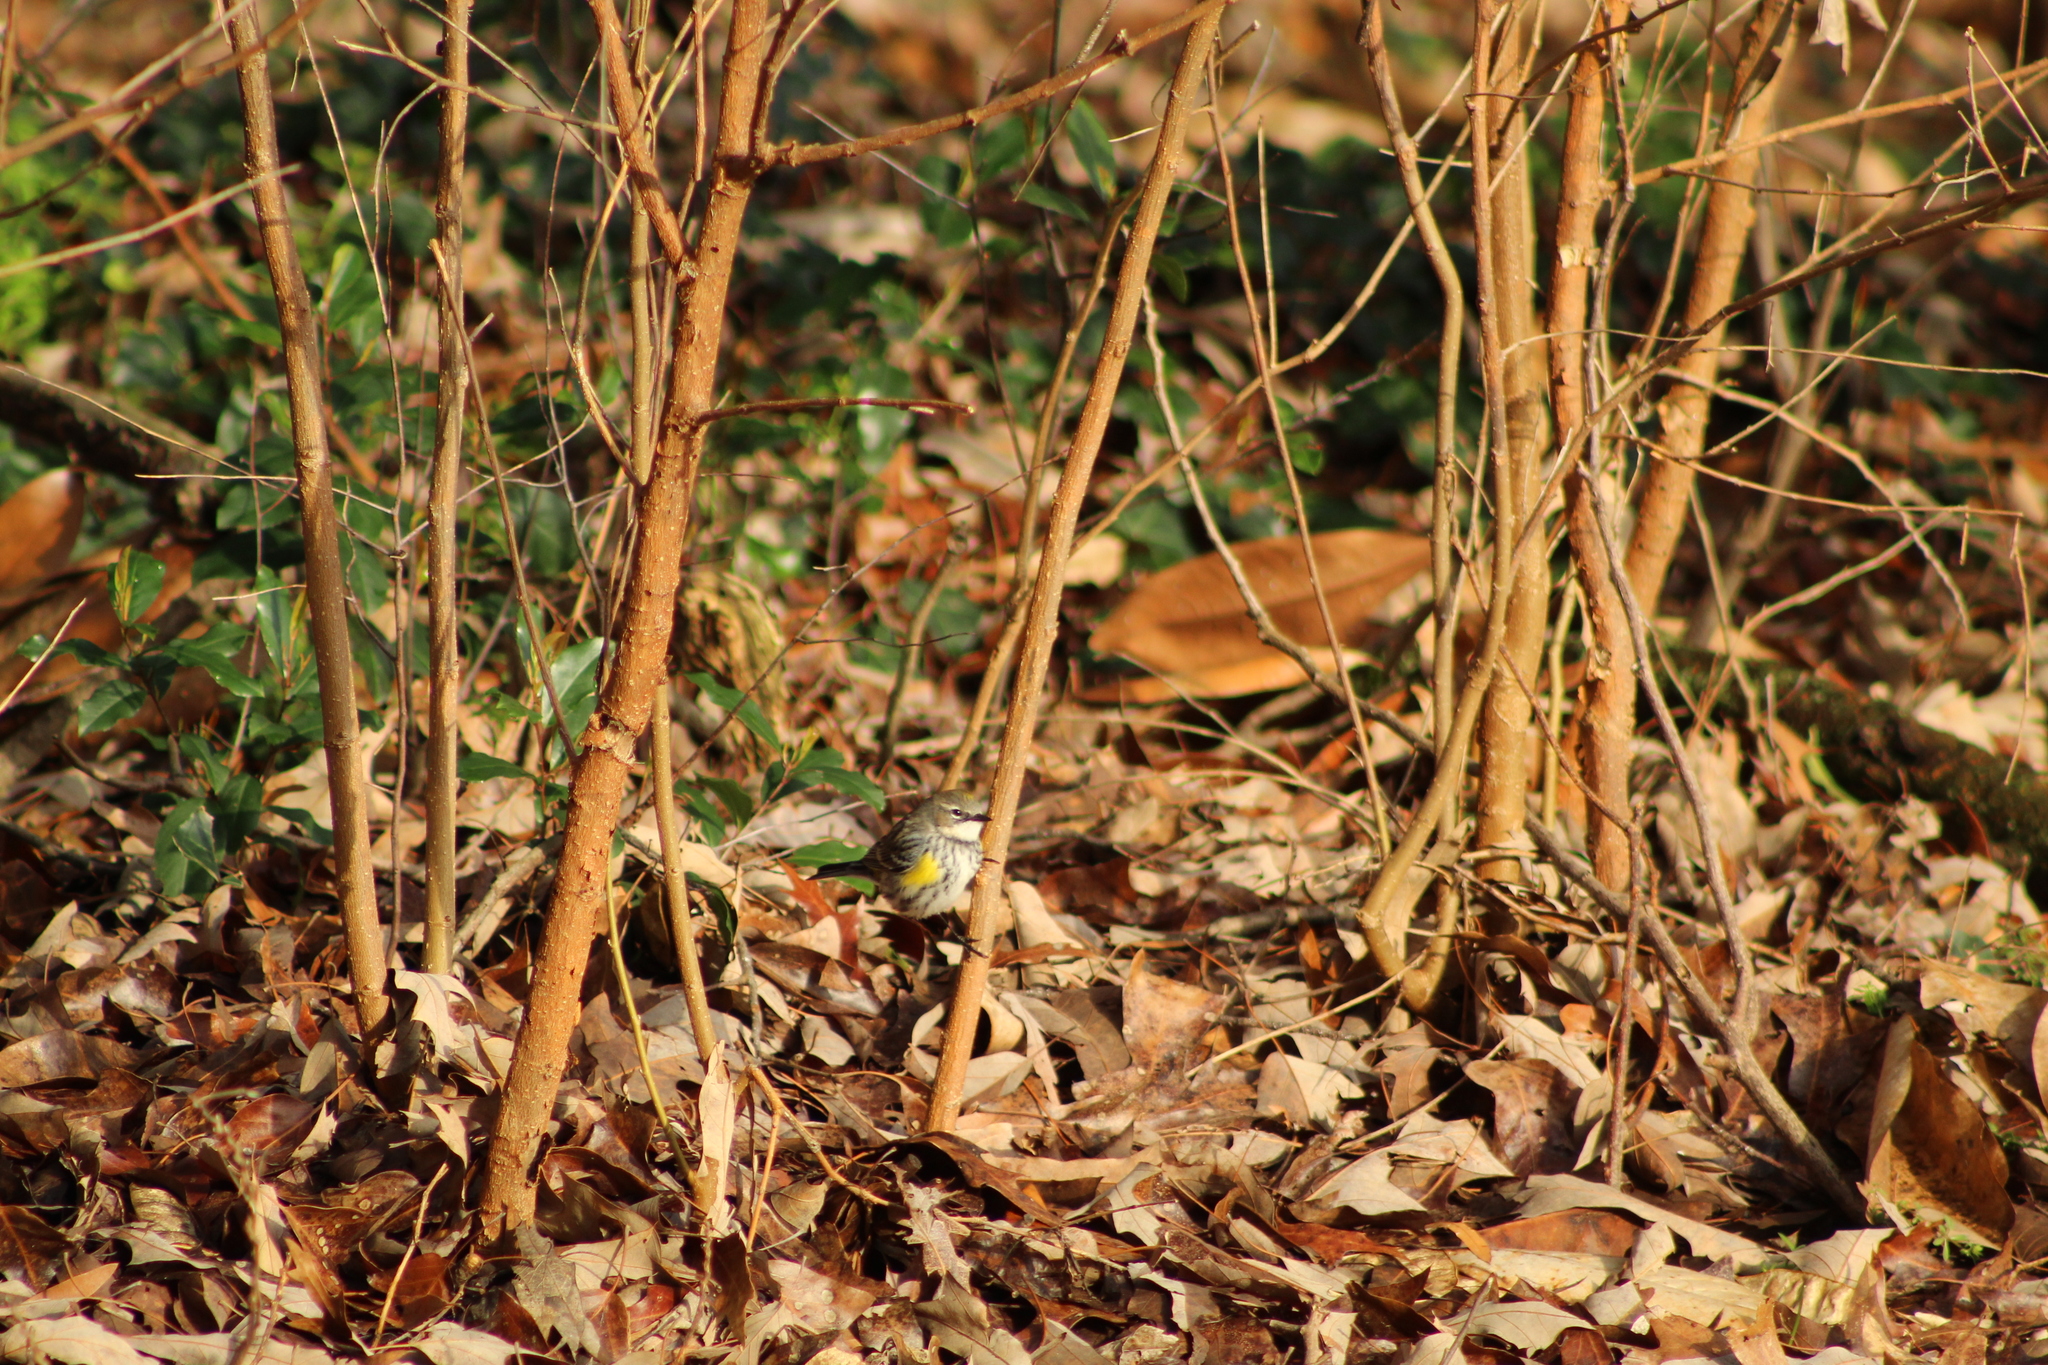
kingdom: Animalia
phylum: Chordata
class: Aves
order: Passeriformes
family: Parulidae
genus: Setophaga
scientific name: Setophaga coronata
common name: Myrtle warbler
